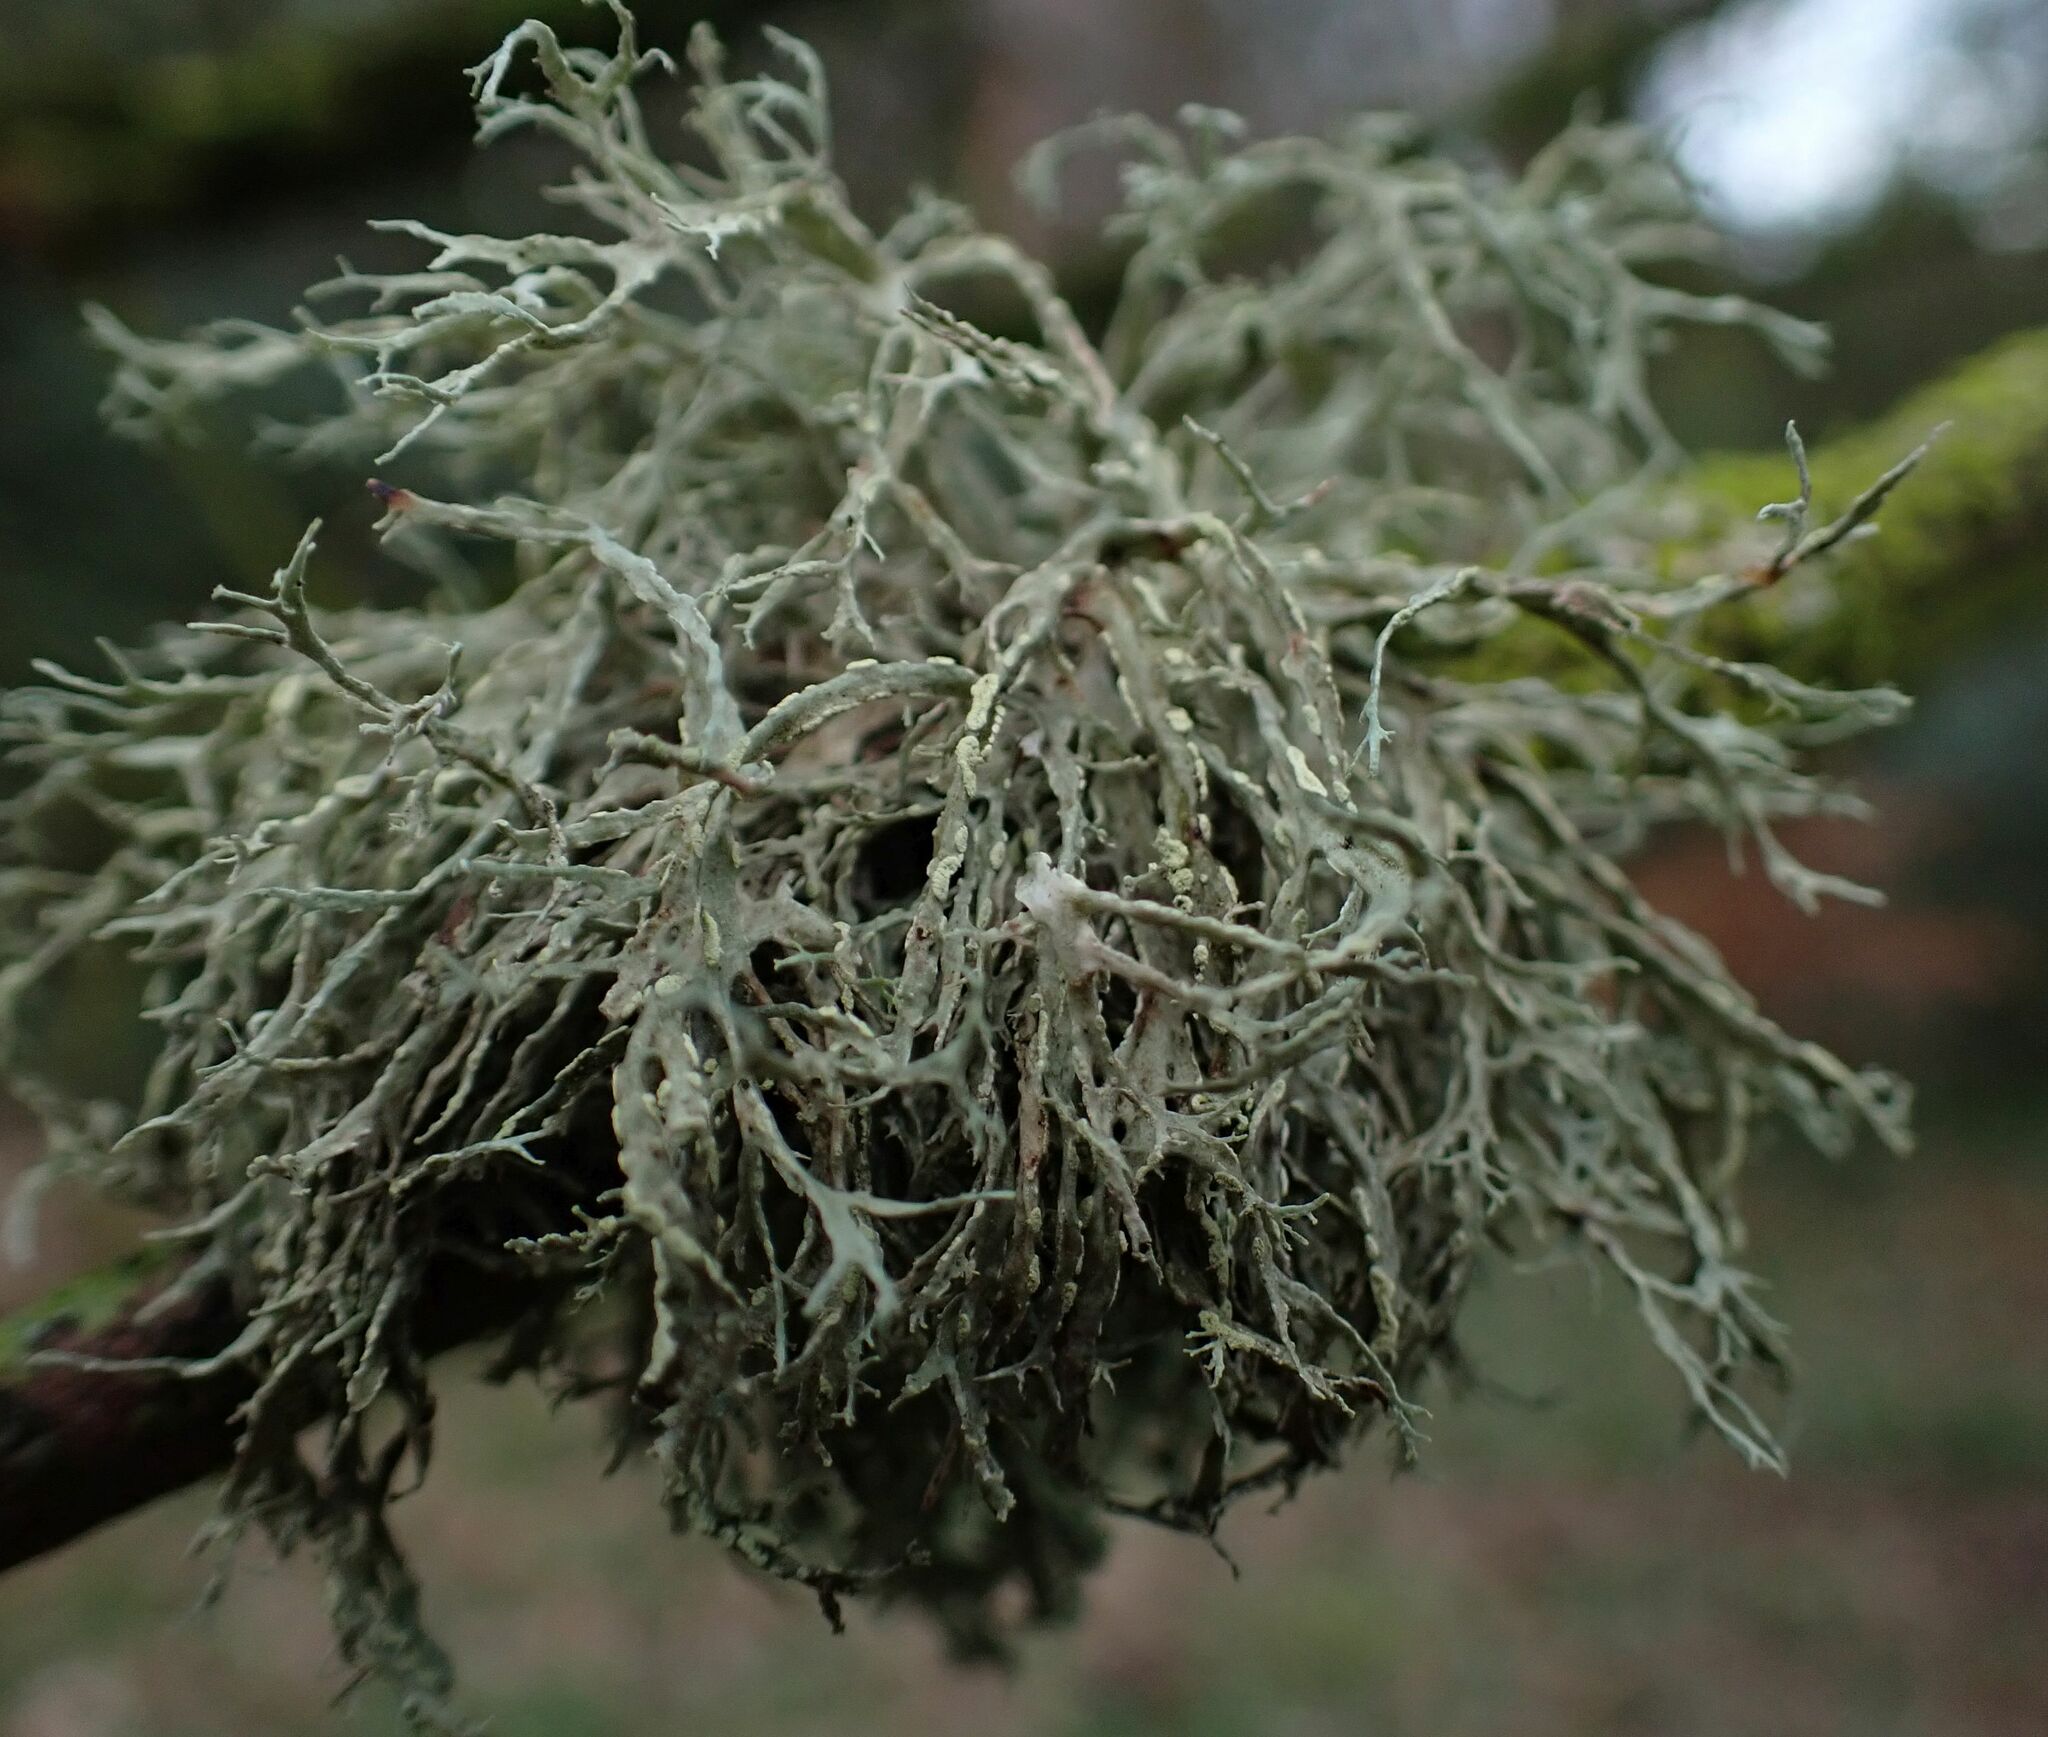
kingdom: Fungi
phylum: Ascomycota
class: Lecanoromycetes
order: Lecanorales
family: Ramalinaceae
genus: Ramalina
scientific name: Ramalina farinacea
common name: Farinose cartilage lichen
